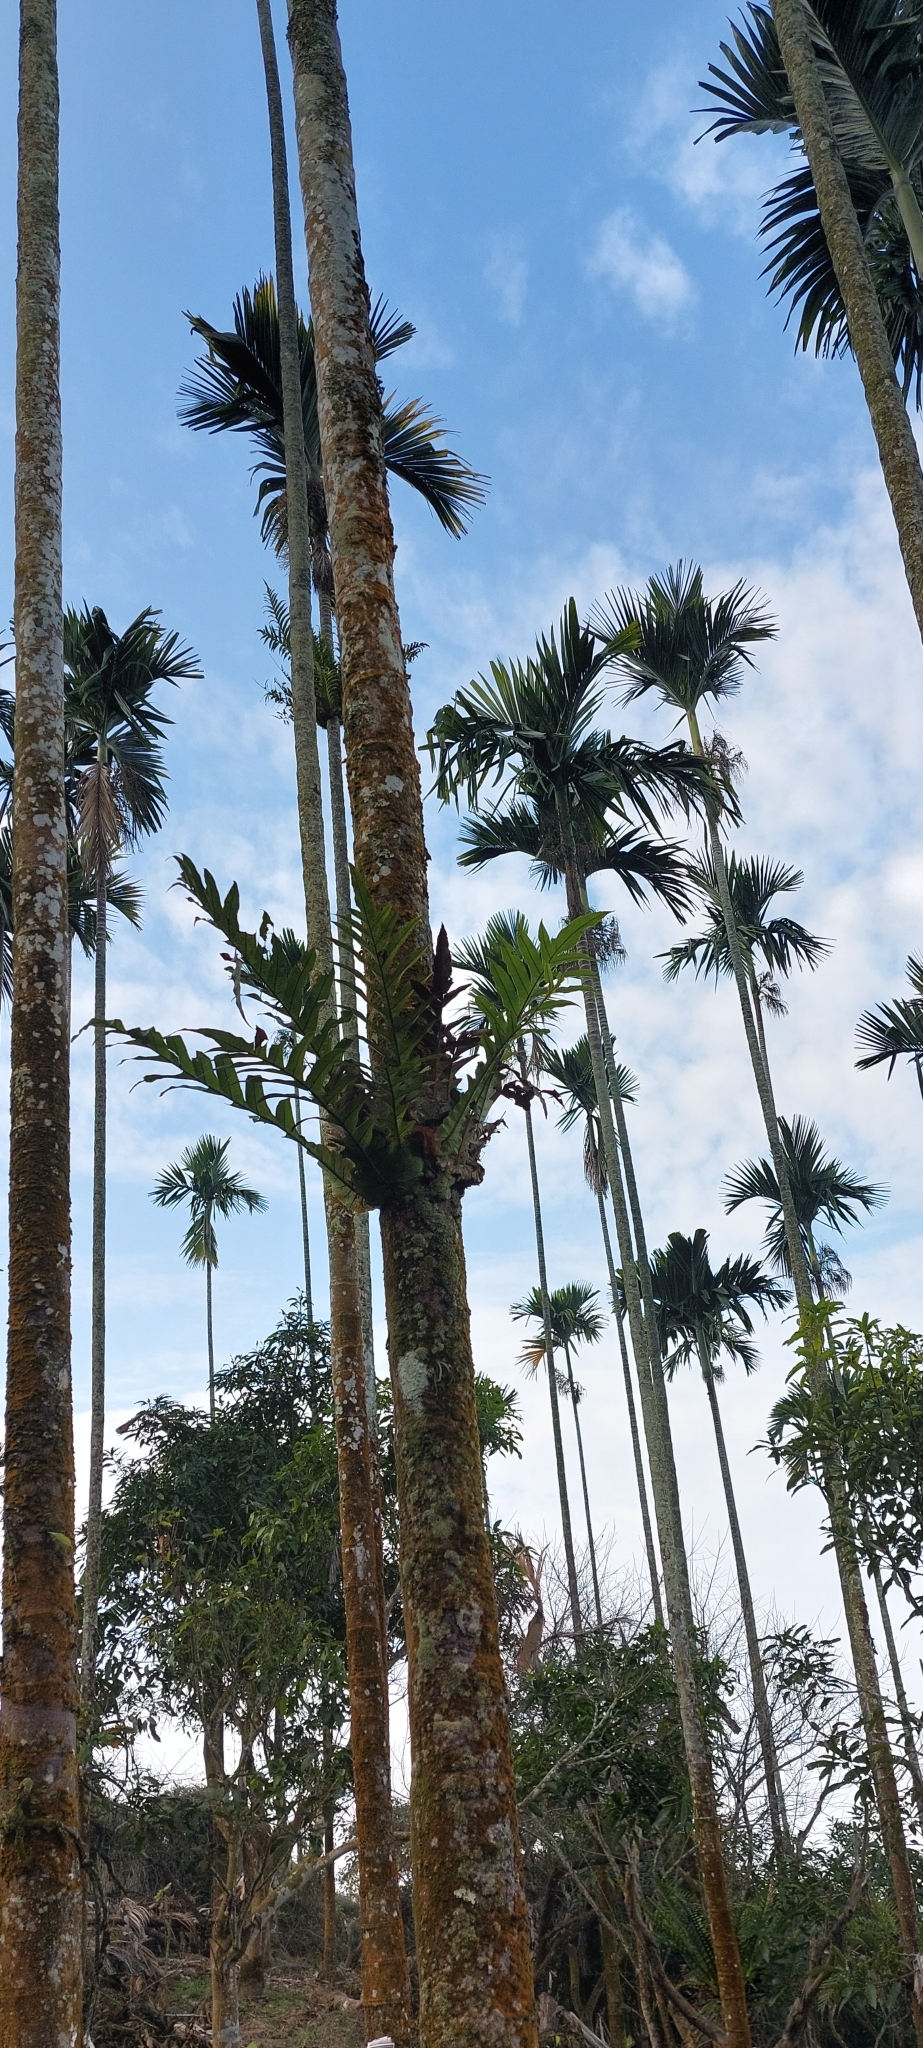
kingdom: Plantae
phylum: Tracheophyta
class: Polypodiopsida
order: Polypodiales
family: Polypodiaceae
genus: Drynaria
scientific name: Drynaria coronans
